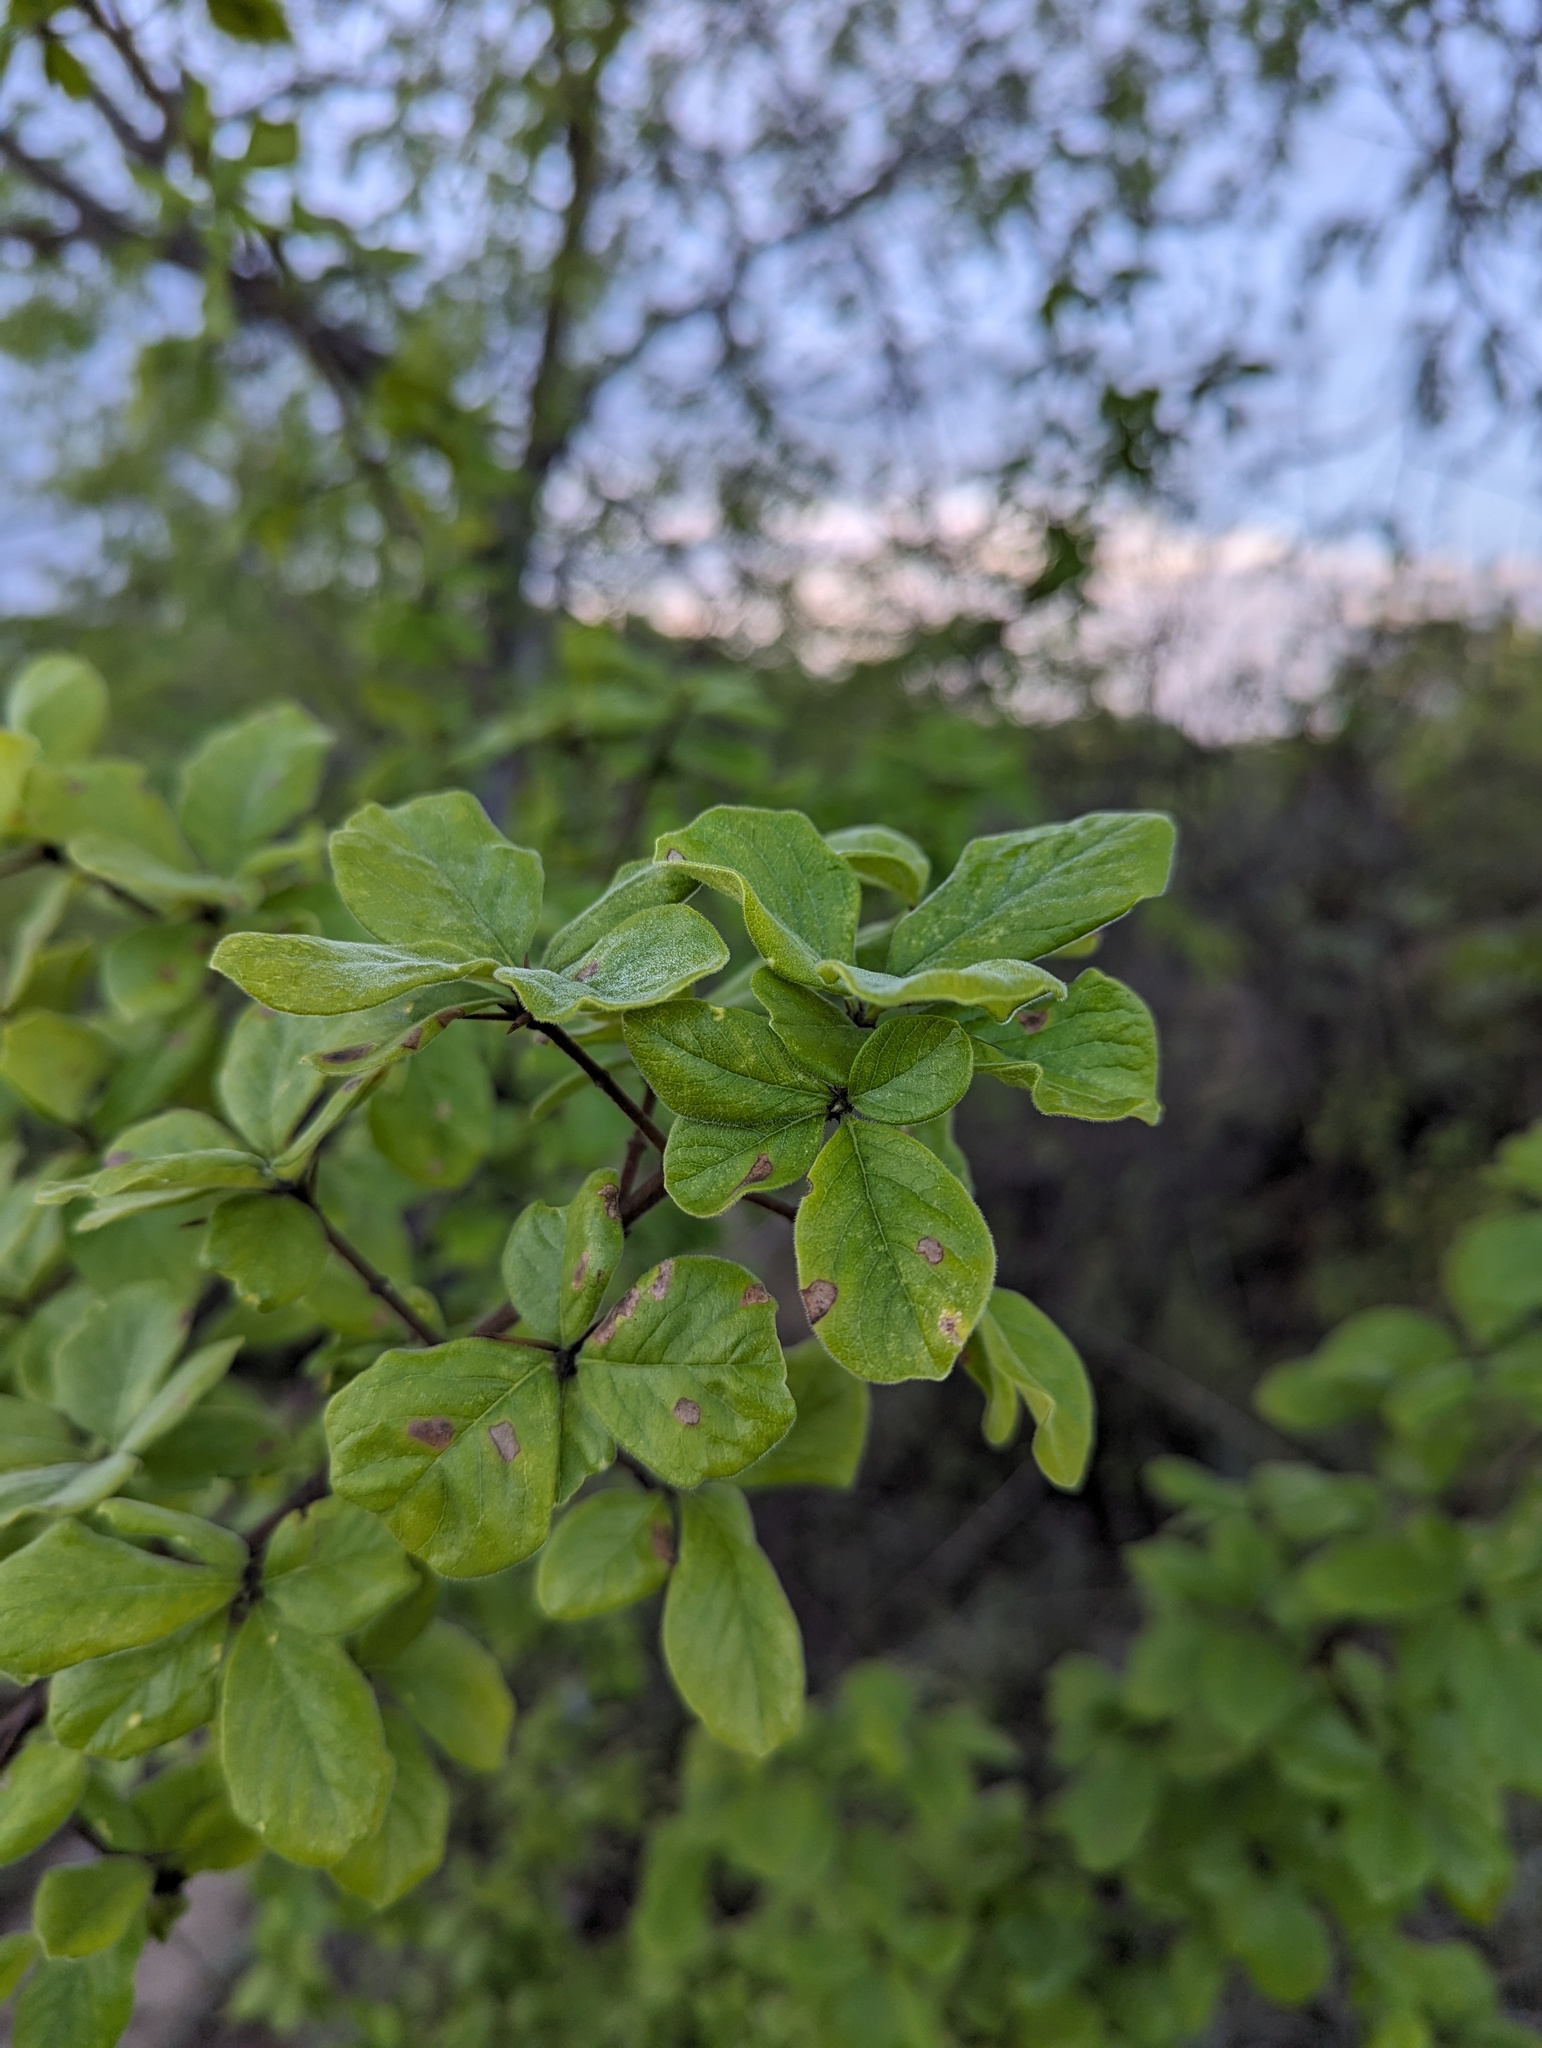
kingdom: Plantae
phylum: Tracheophyta
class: Magnoliopsida
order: Gentianales
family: Rubiaceae
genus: Randia
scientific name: Randia capitata
